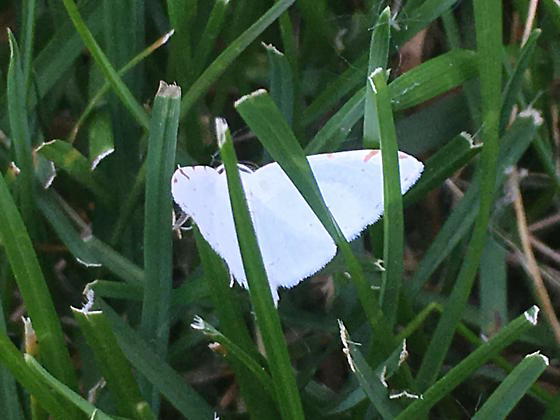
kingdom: Animalia
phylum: Arthropoda
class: Insecta
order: Lepidoptera
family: Geometridae
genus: Macaria
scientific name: Macaria pustularia
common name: Lesser maple spanworm moth
